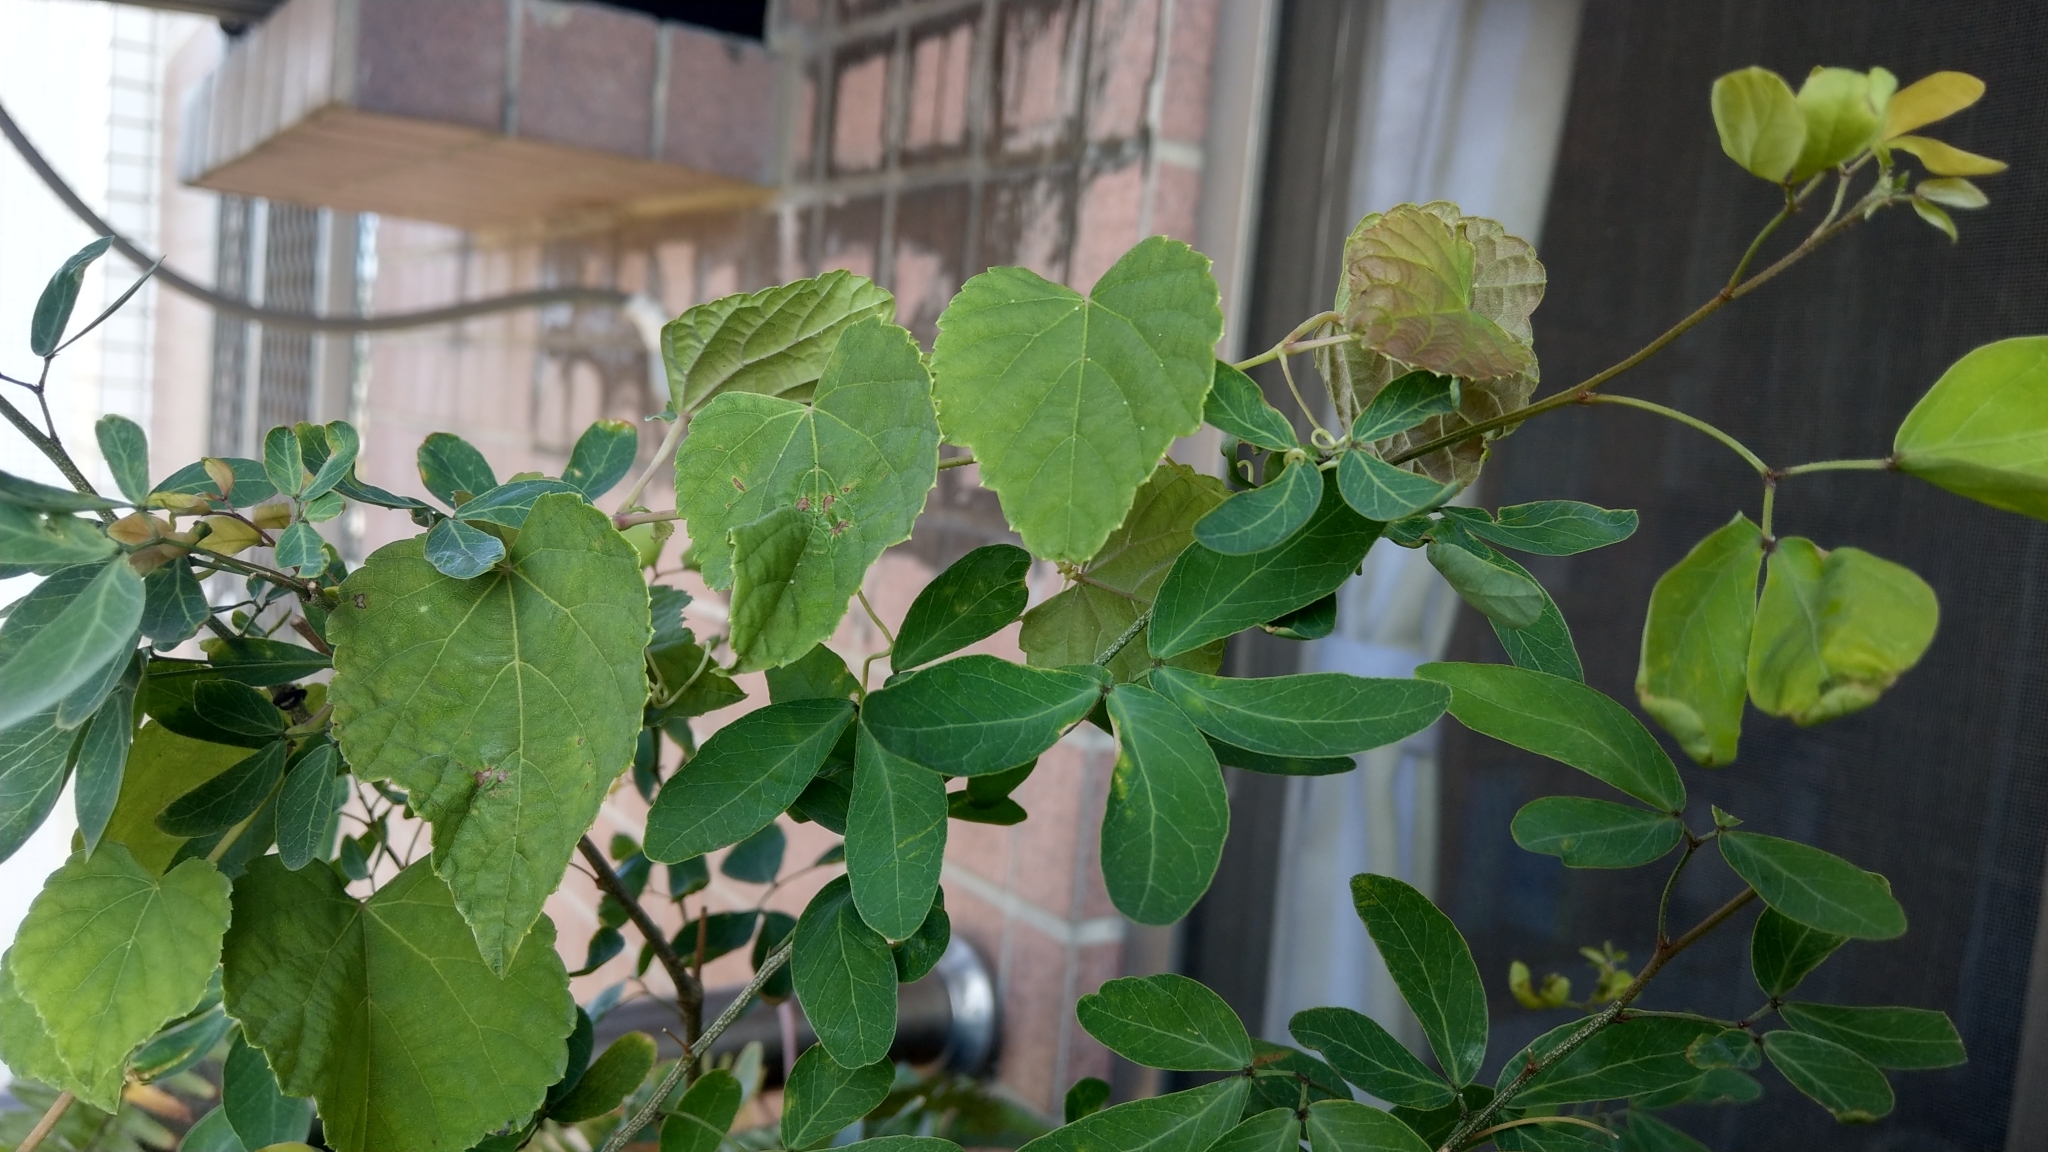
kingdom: Plantae
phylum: Tracheophyta
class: Magnoliopsida
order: Vitales
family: Vitaceae
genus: Ampelopsis
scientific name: Ampelopsis glandulosa
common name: Amur peppervine
